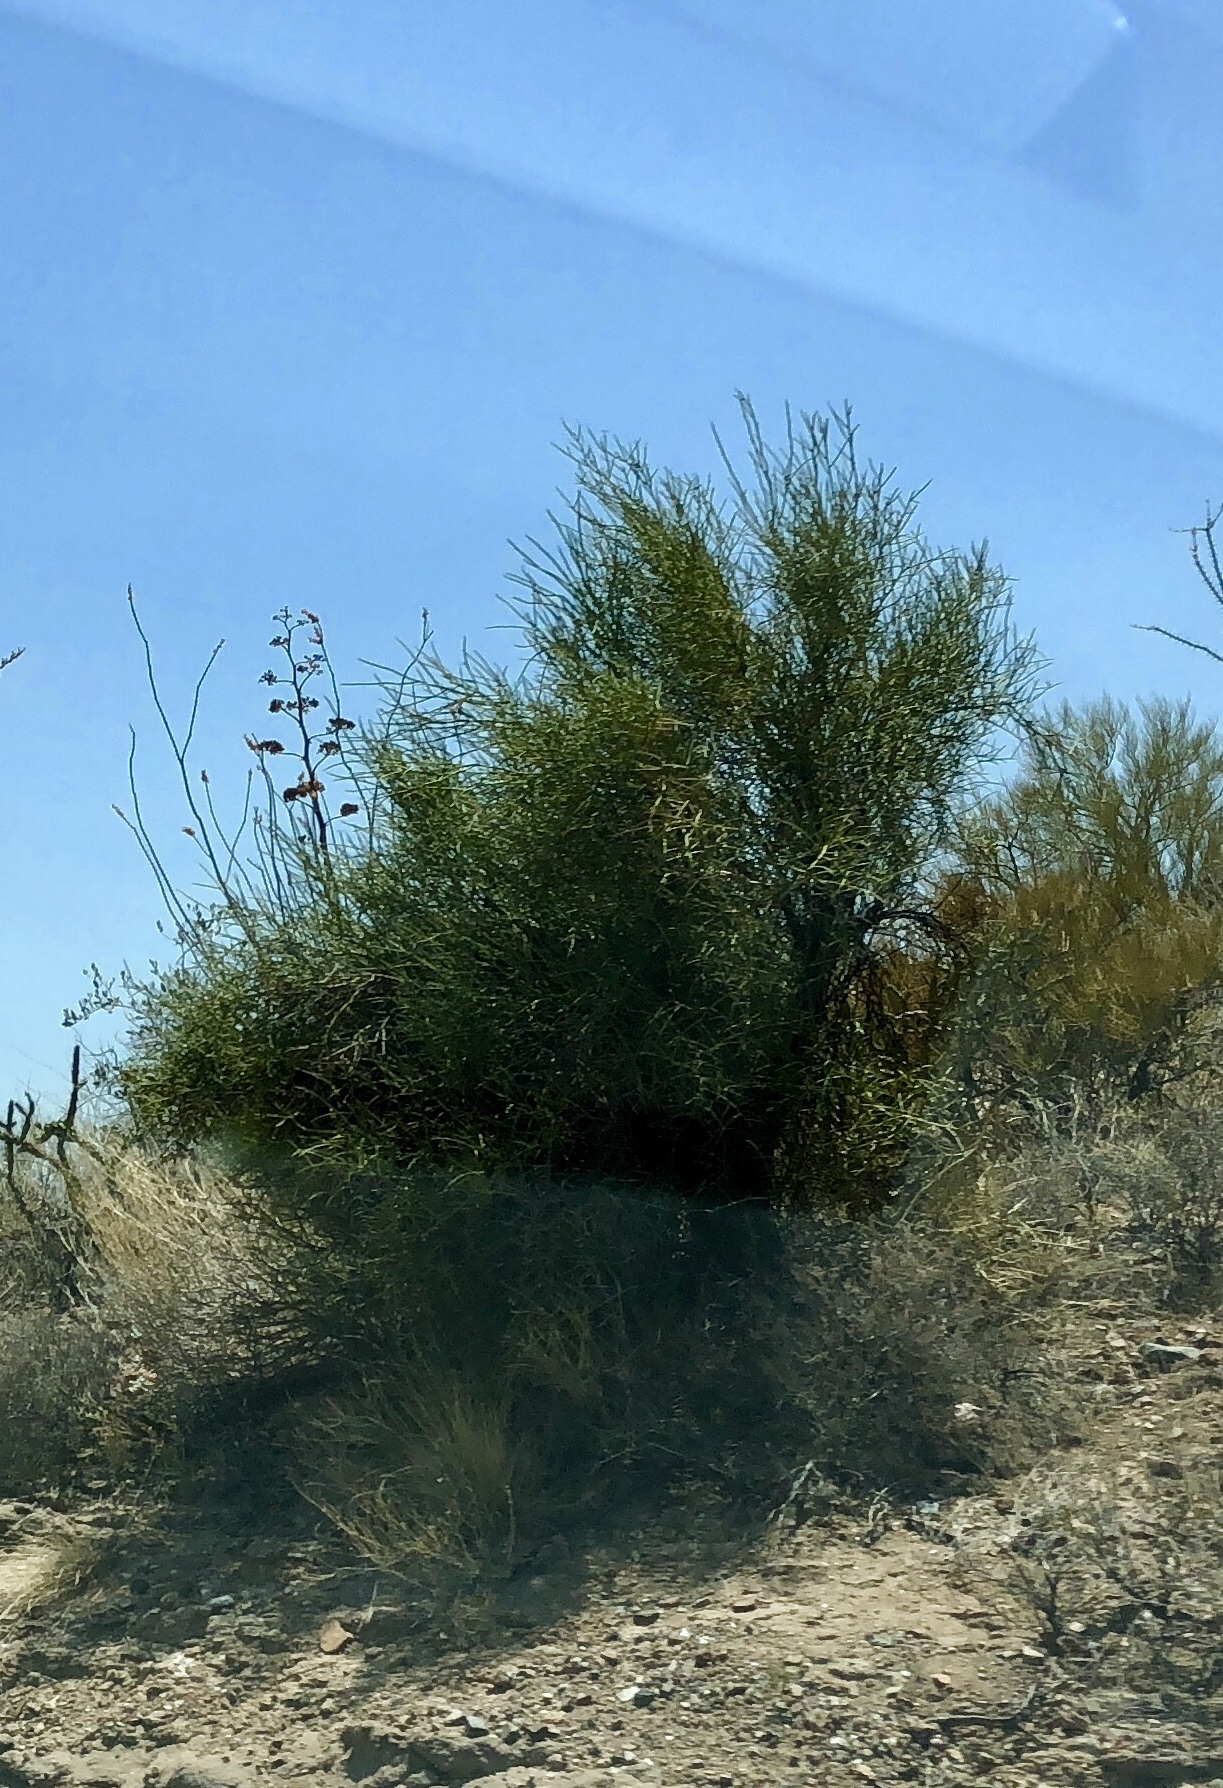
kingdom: Plantae
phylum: Tracheophyta
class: Magnoliopsida
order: Celastrales
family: Celastraceae
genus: Canotia
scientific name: Canotia holacantha
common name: Crucifixion thorns
